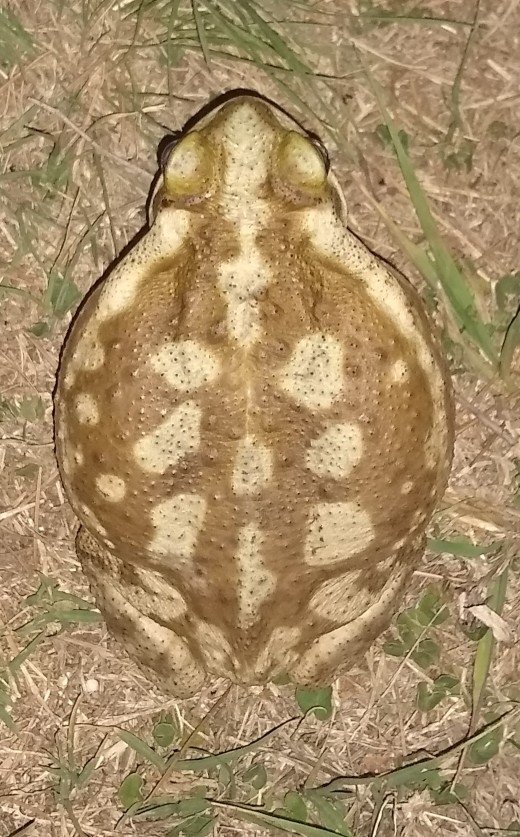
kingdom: Animalia
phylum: Chordata
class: Amphibia
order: Anura
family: Bufonidae
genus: Rhinella
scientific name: Rhinella arenarum
